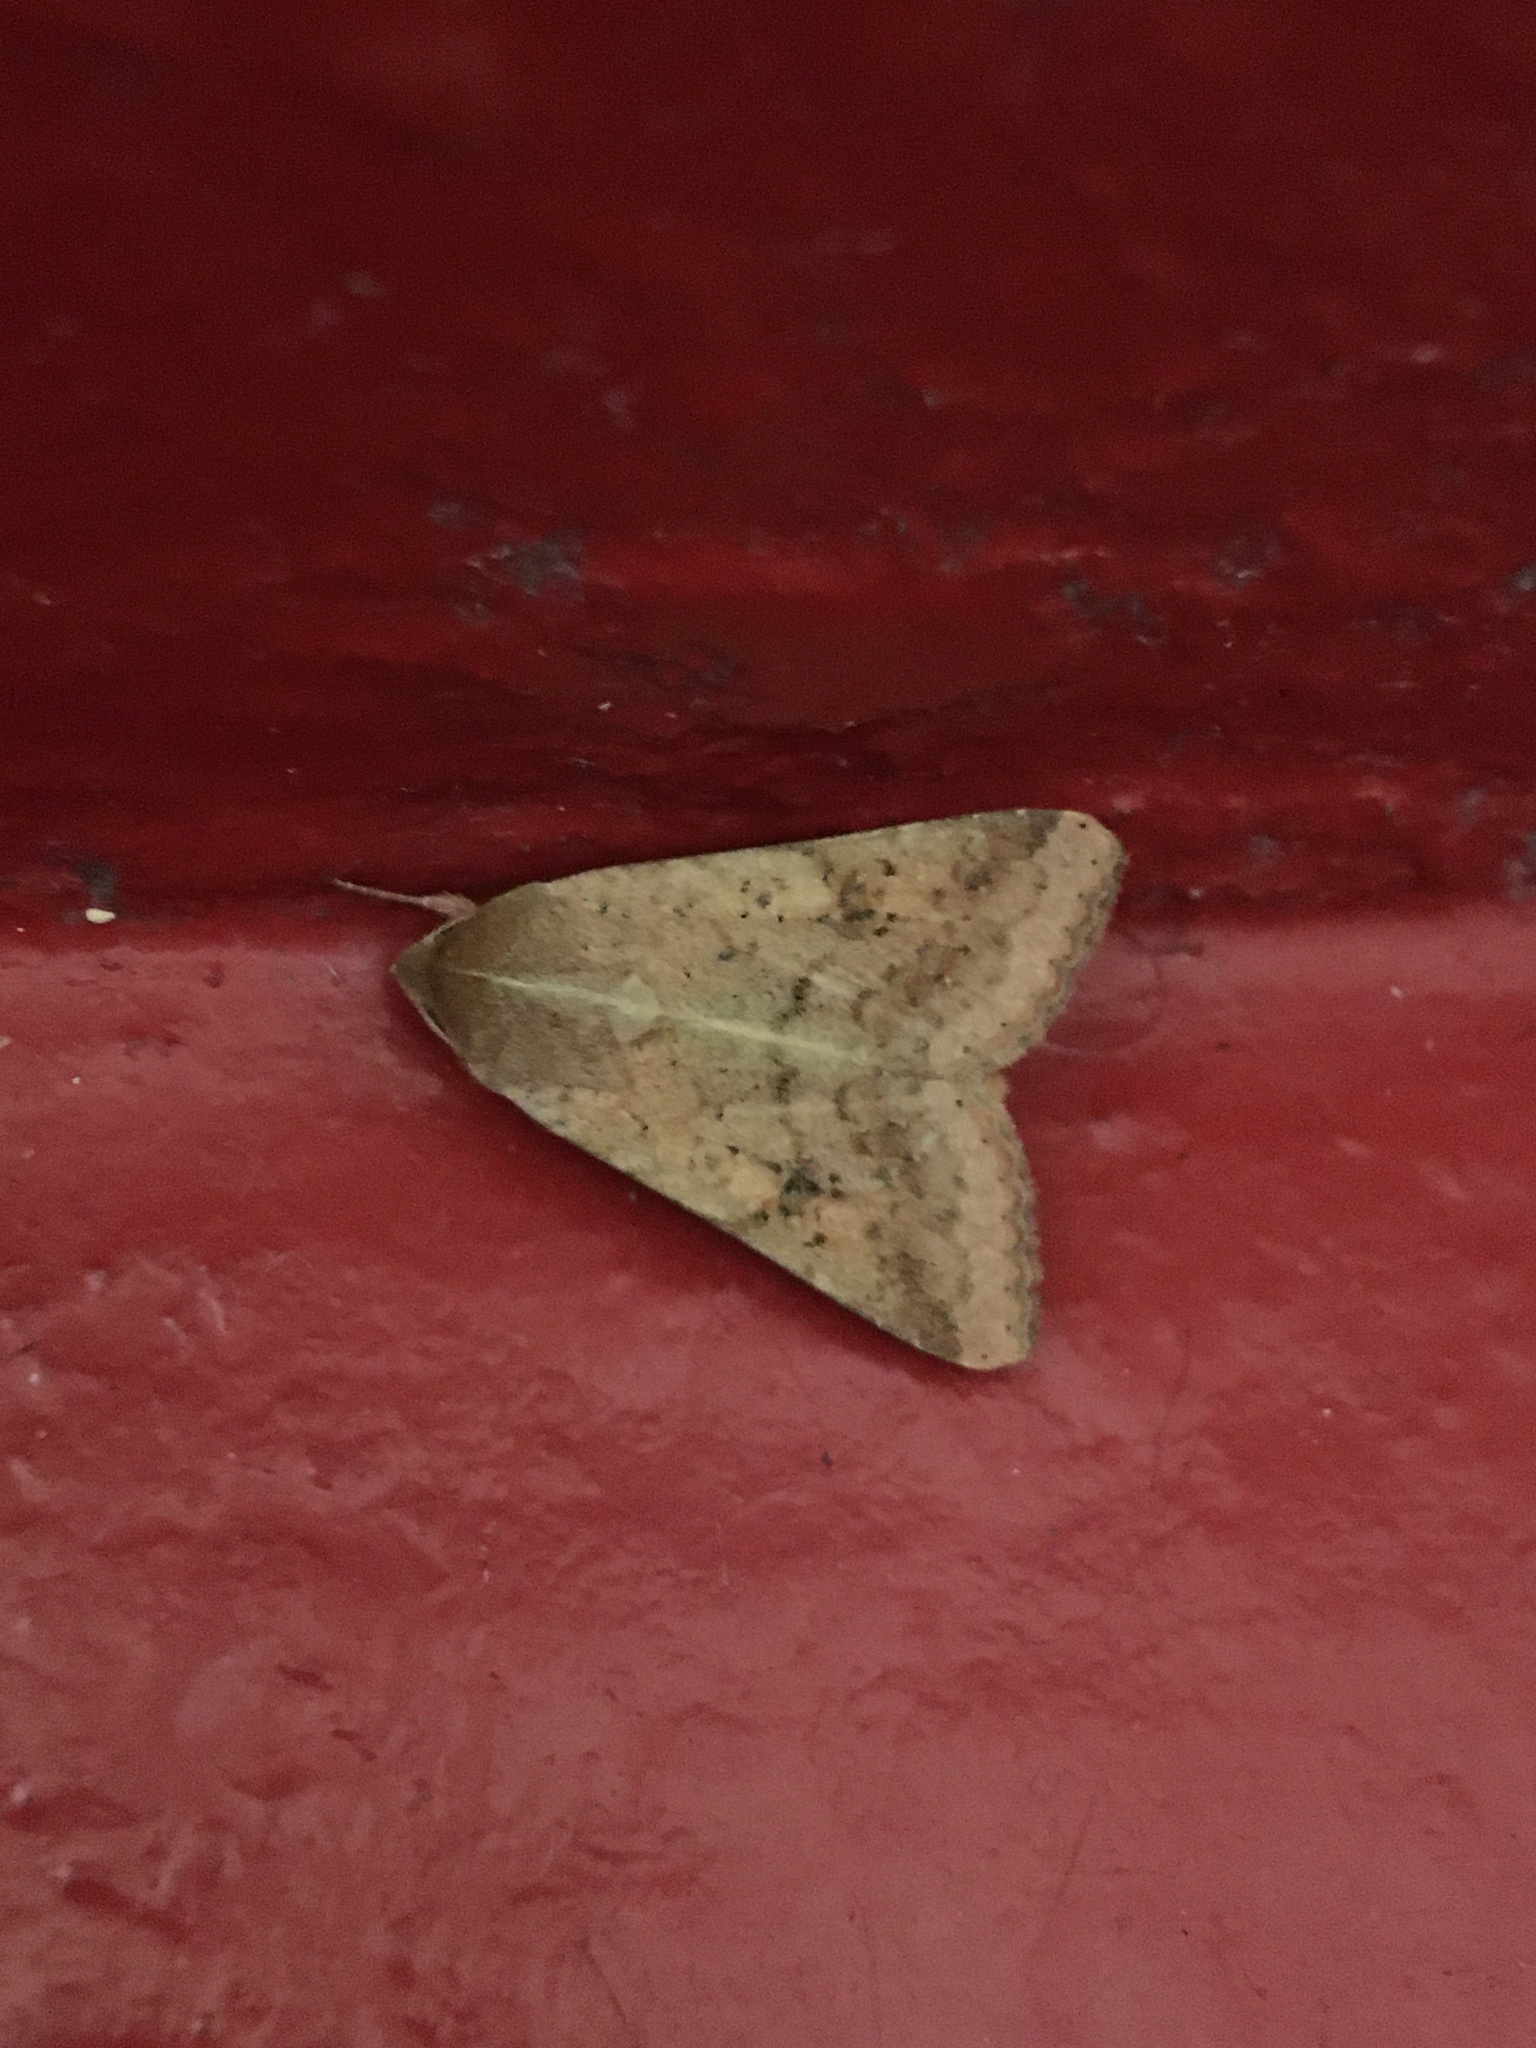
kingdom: Animalia
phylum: Arthropoda
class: Insecta
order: Lepidoptera
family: Noctuidae
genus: Helicoverpa
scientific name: Helicoverpa armigera
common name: Cotton bollworm
